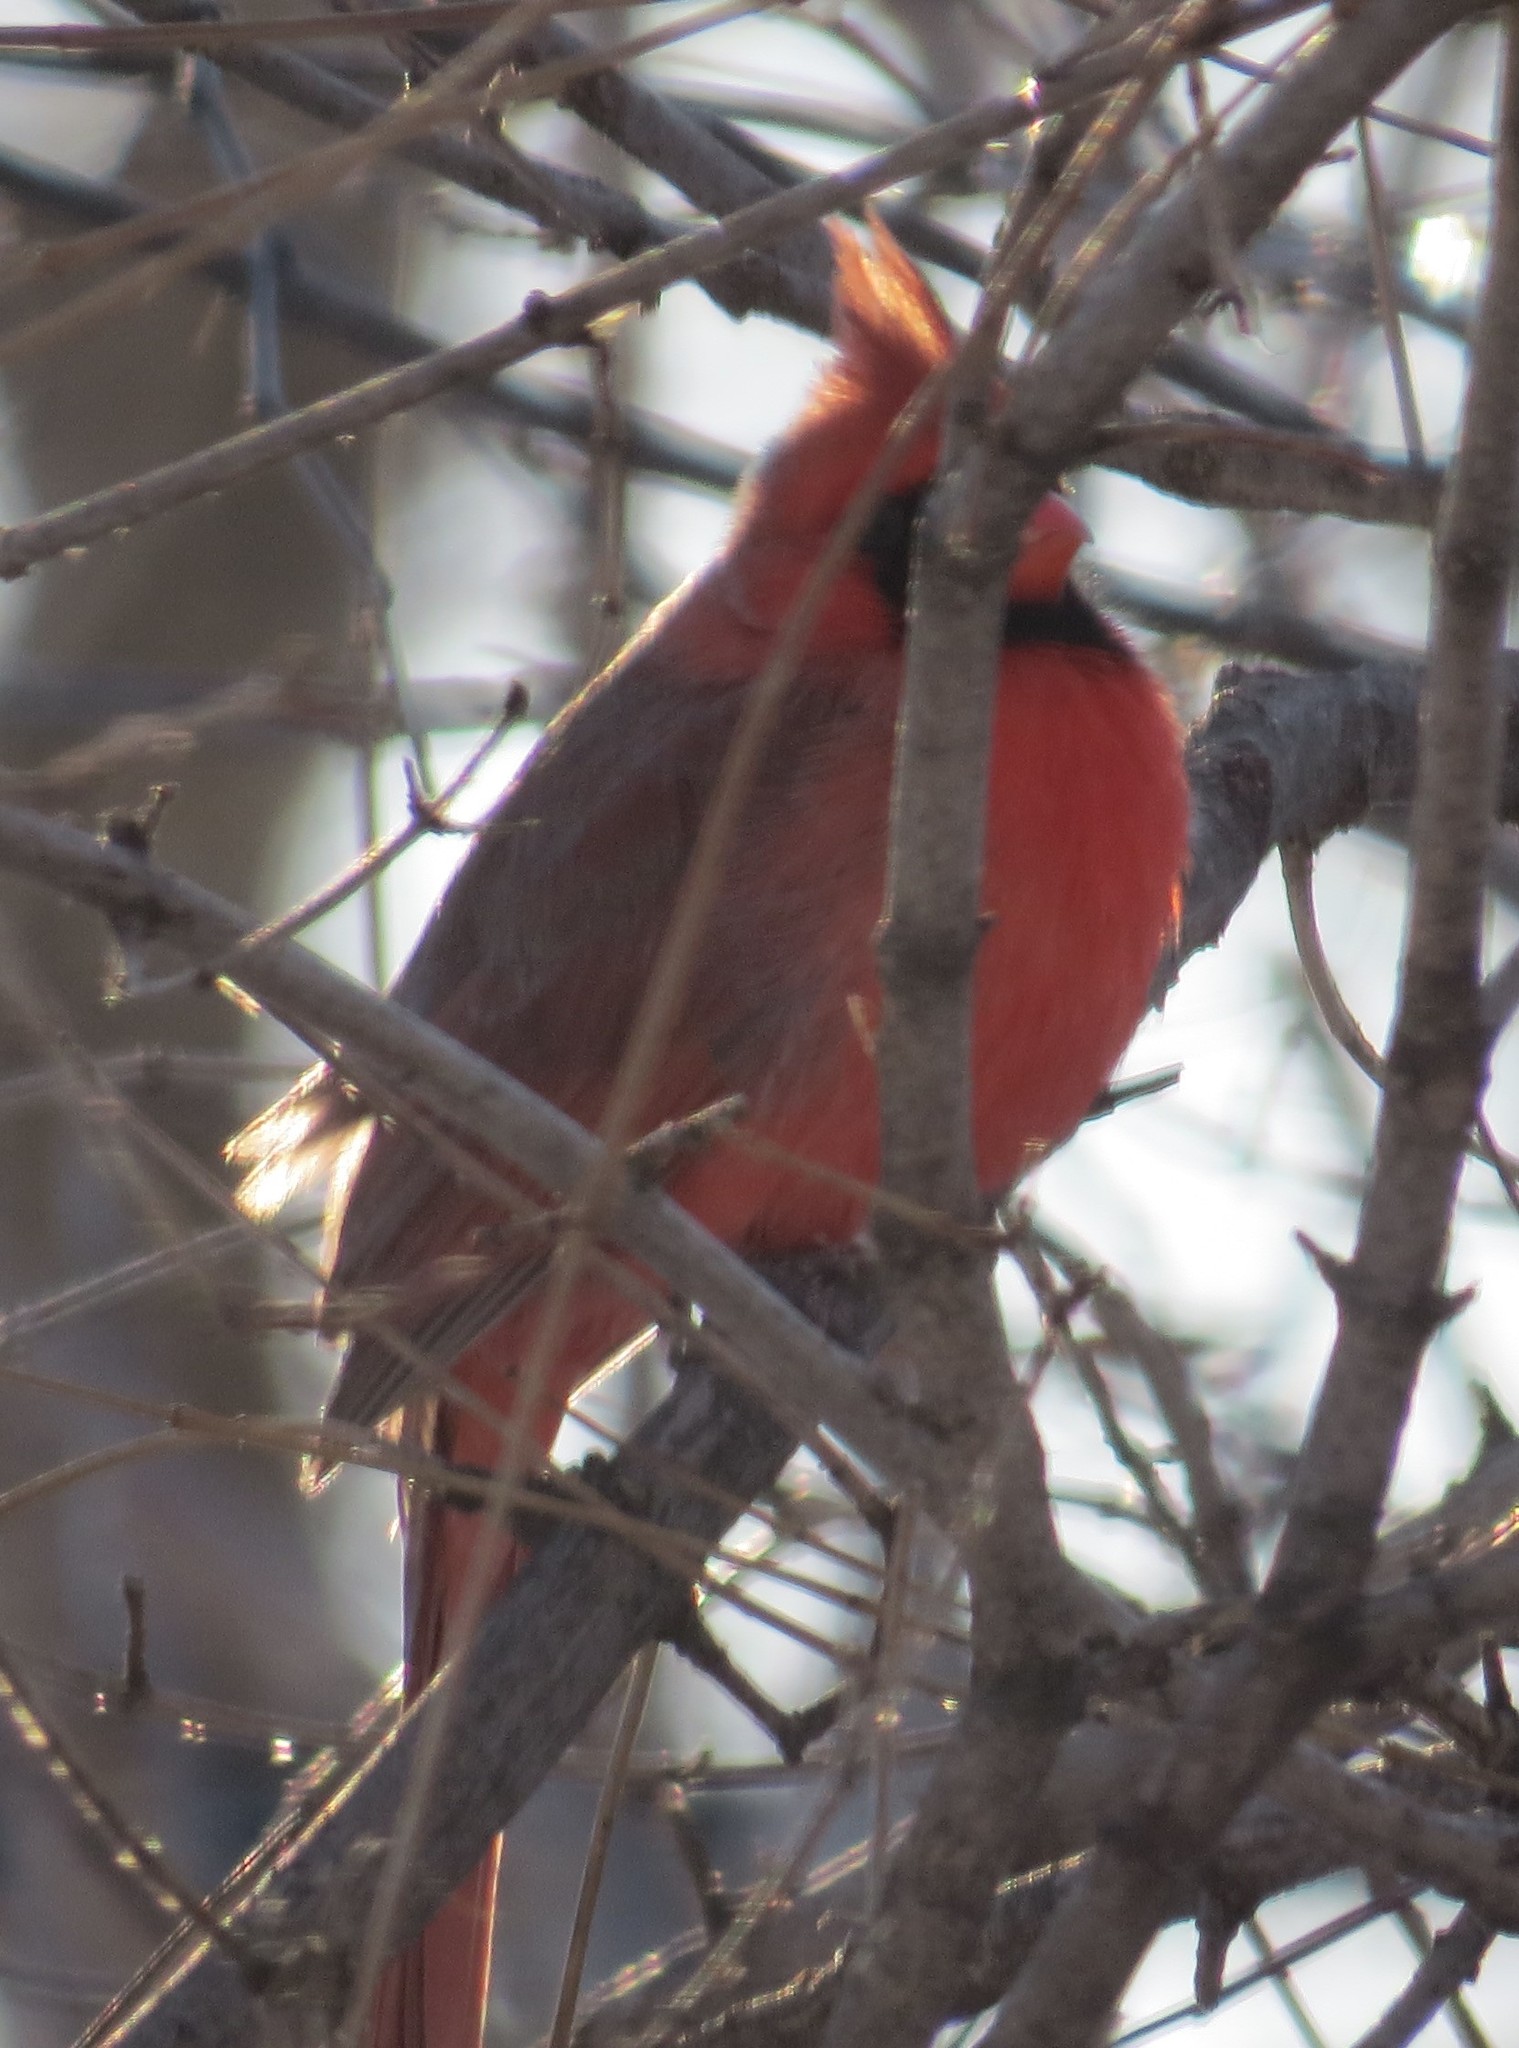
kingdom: Animalia
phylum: Chordata
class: Aves
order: Passeriformes
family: Cardinalidae
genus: Cardinalis
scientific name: Cardinalis cardinalis
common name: Northern cardinal
